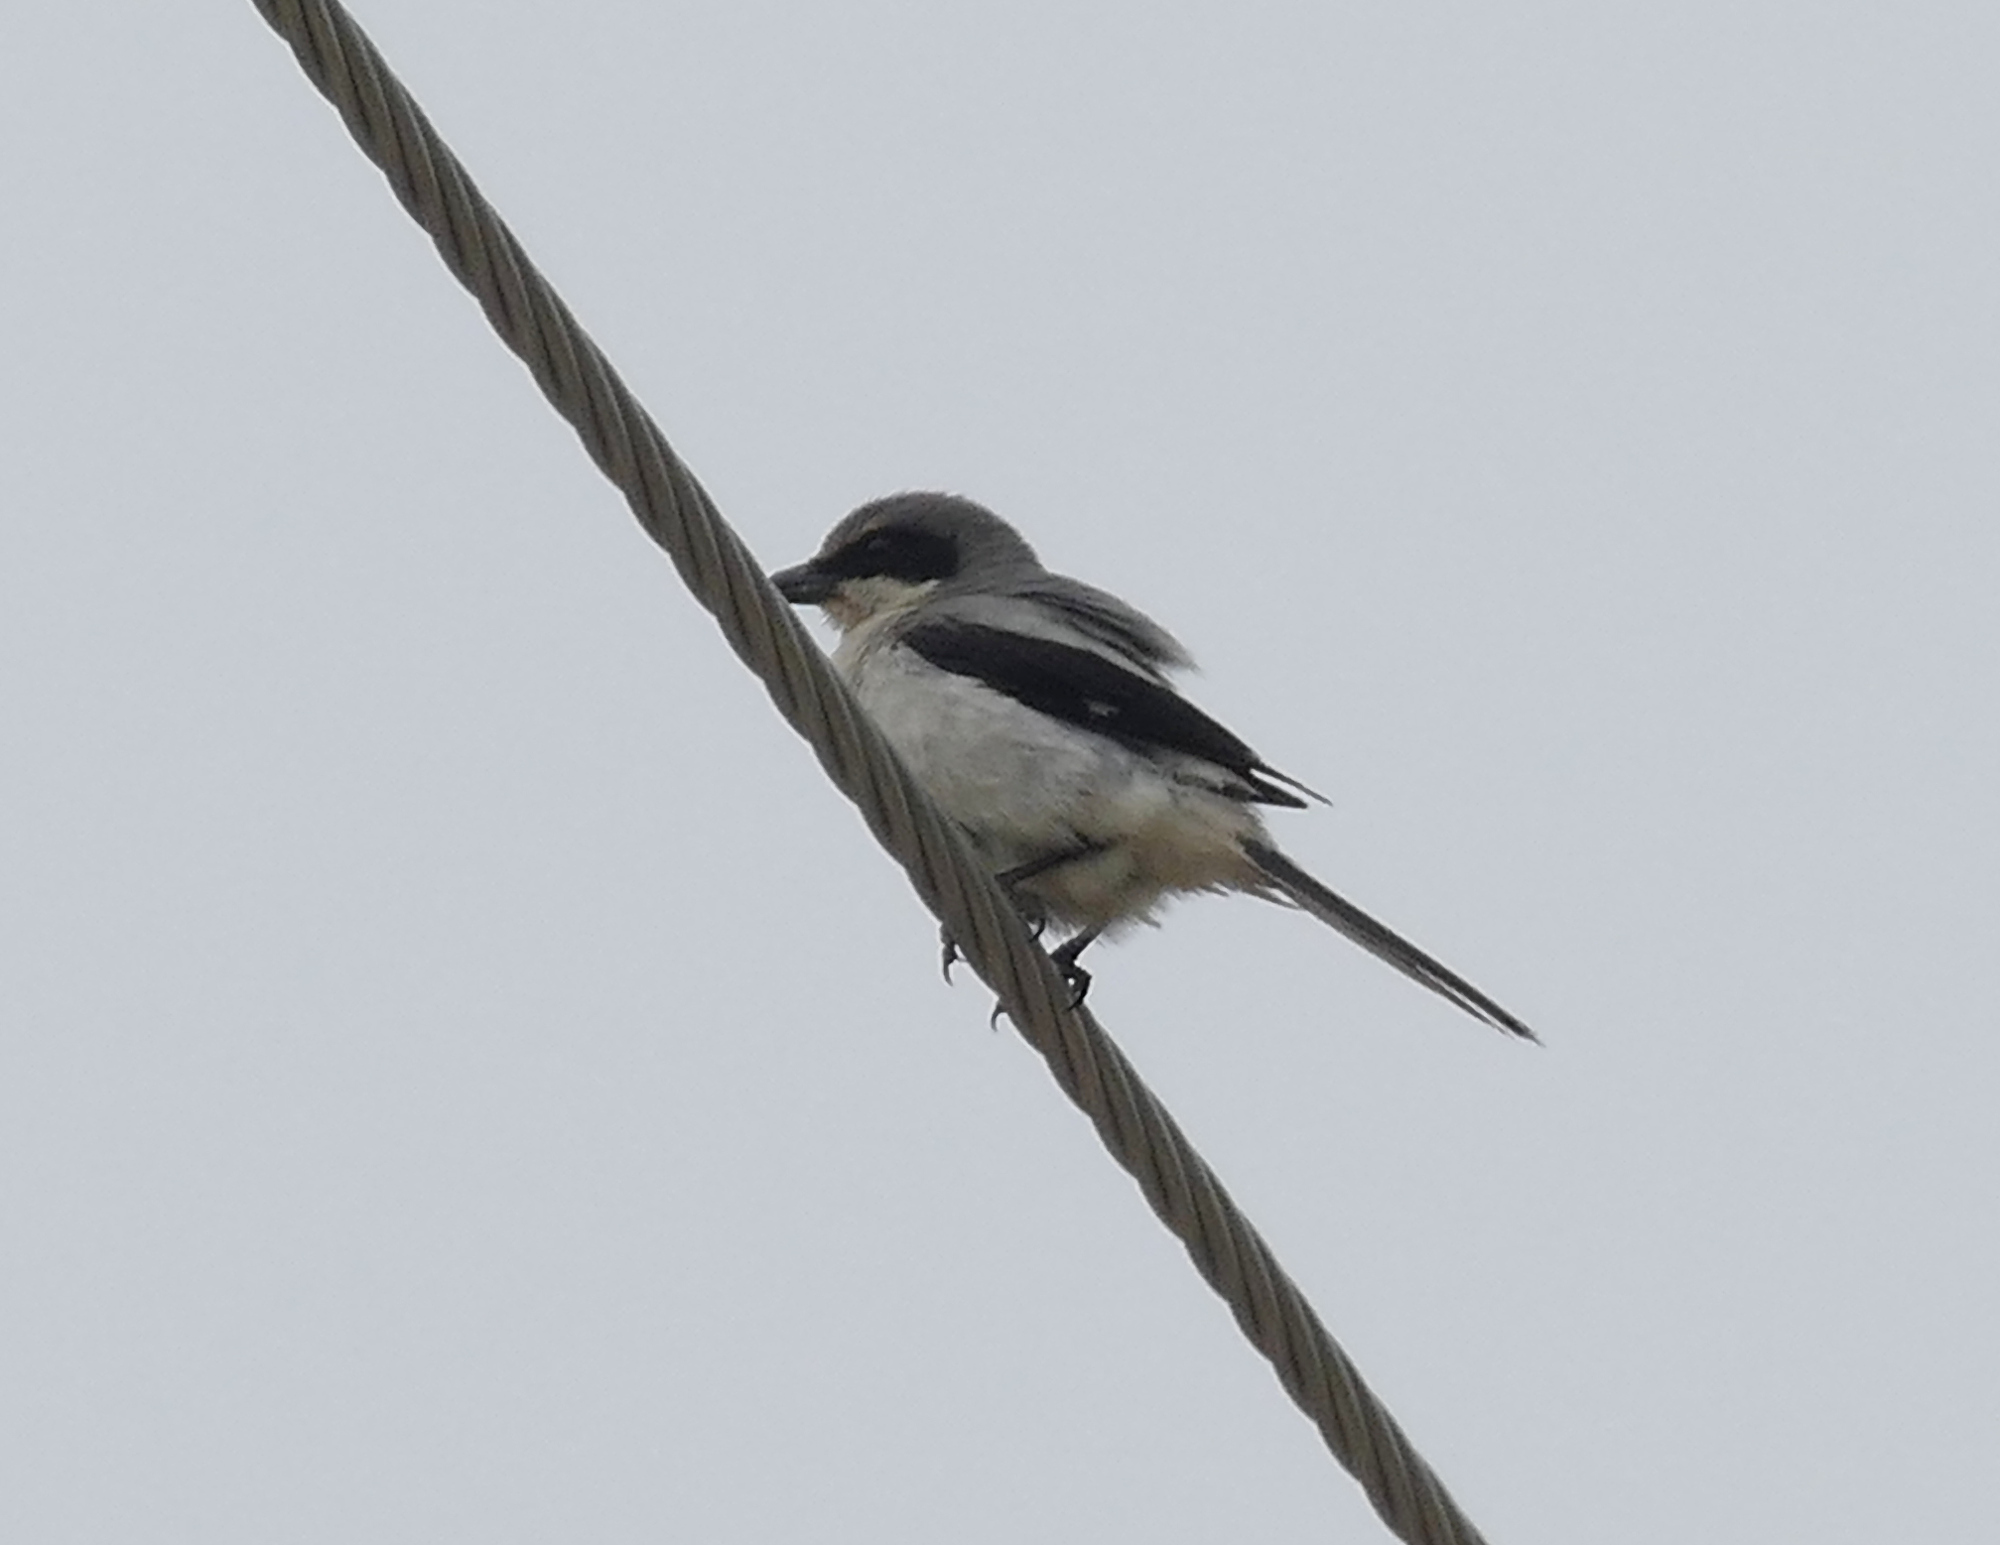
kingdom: Animalia
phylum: Chordata
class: Aves
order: Passeriformes
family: Laniidae
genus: Lanius
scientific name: Lanius ludovicianus
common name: Loggerhead shrike
